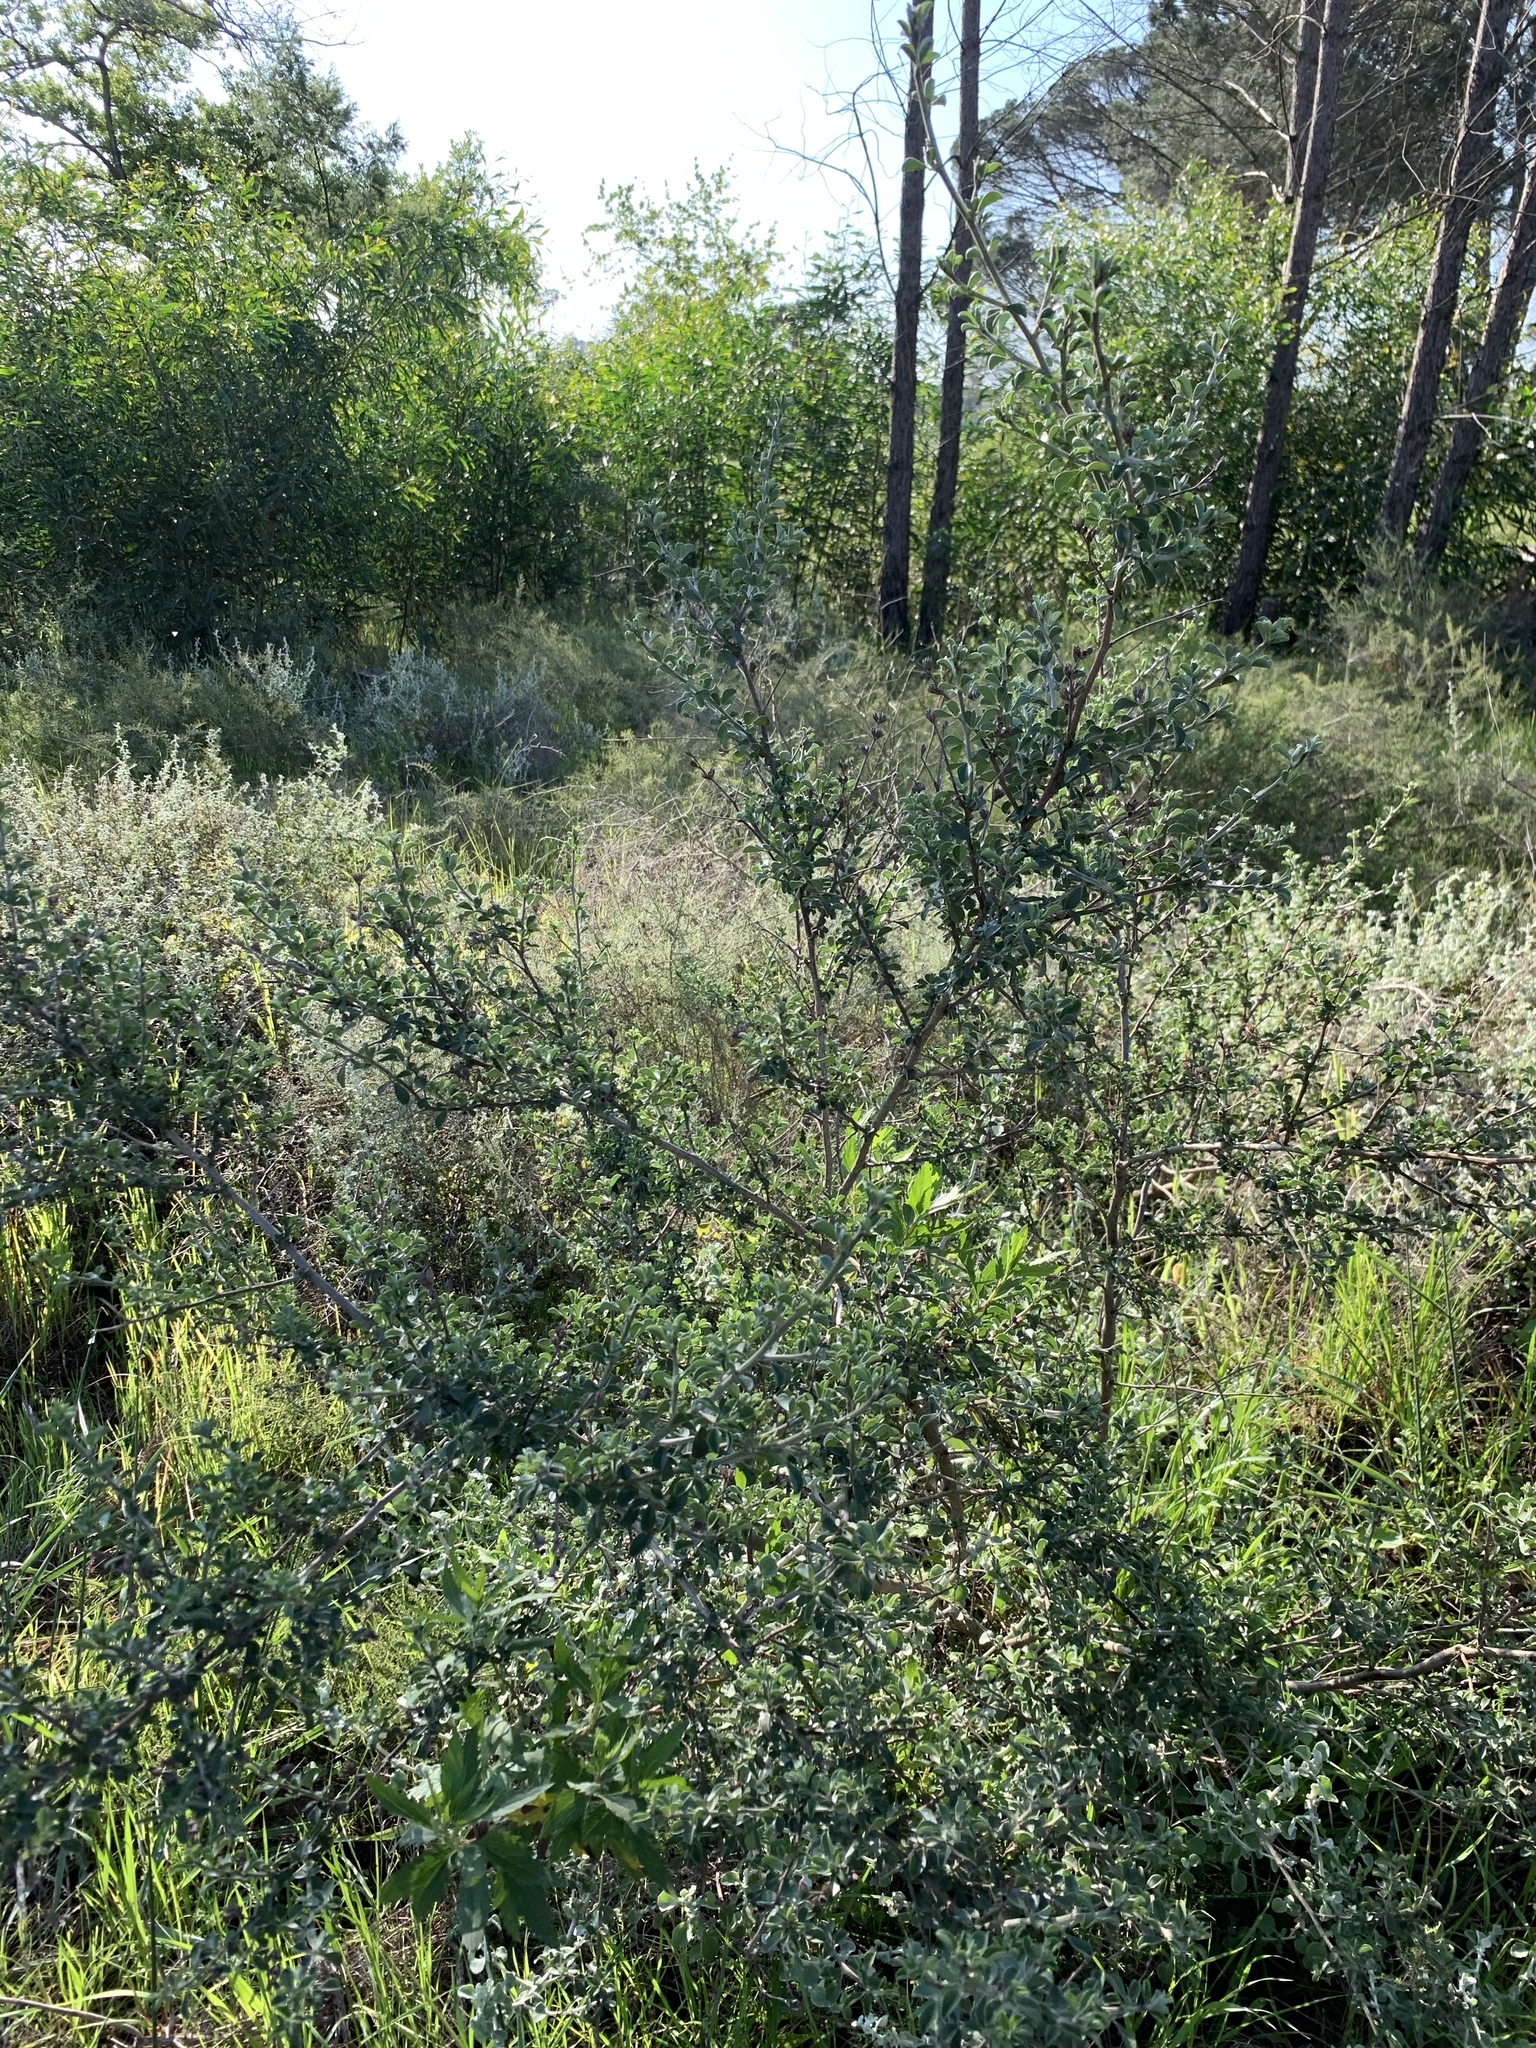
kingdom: Plantae
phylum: Tracheophyta
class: Magnoliopsida
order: Fabales
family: Fabaceae
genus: Psoralea
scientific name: Psoralea hirta
